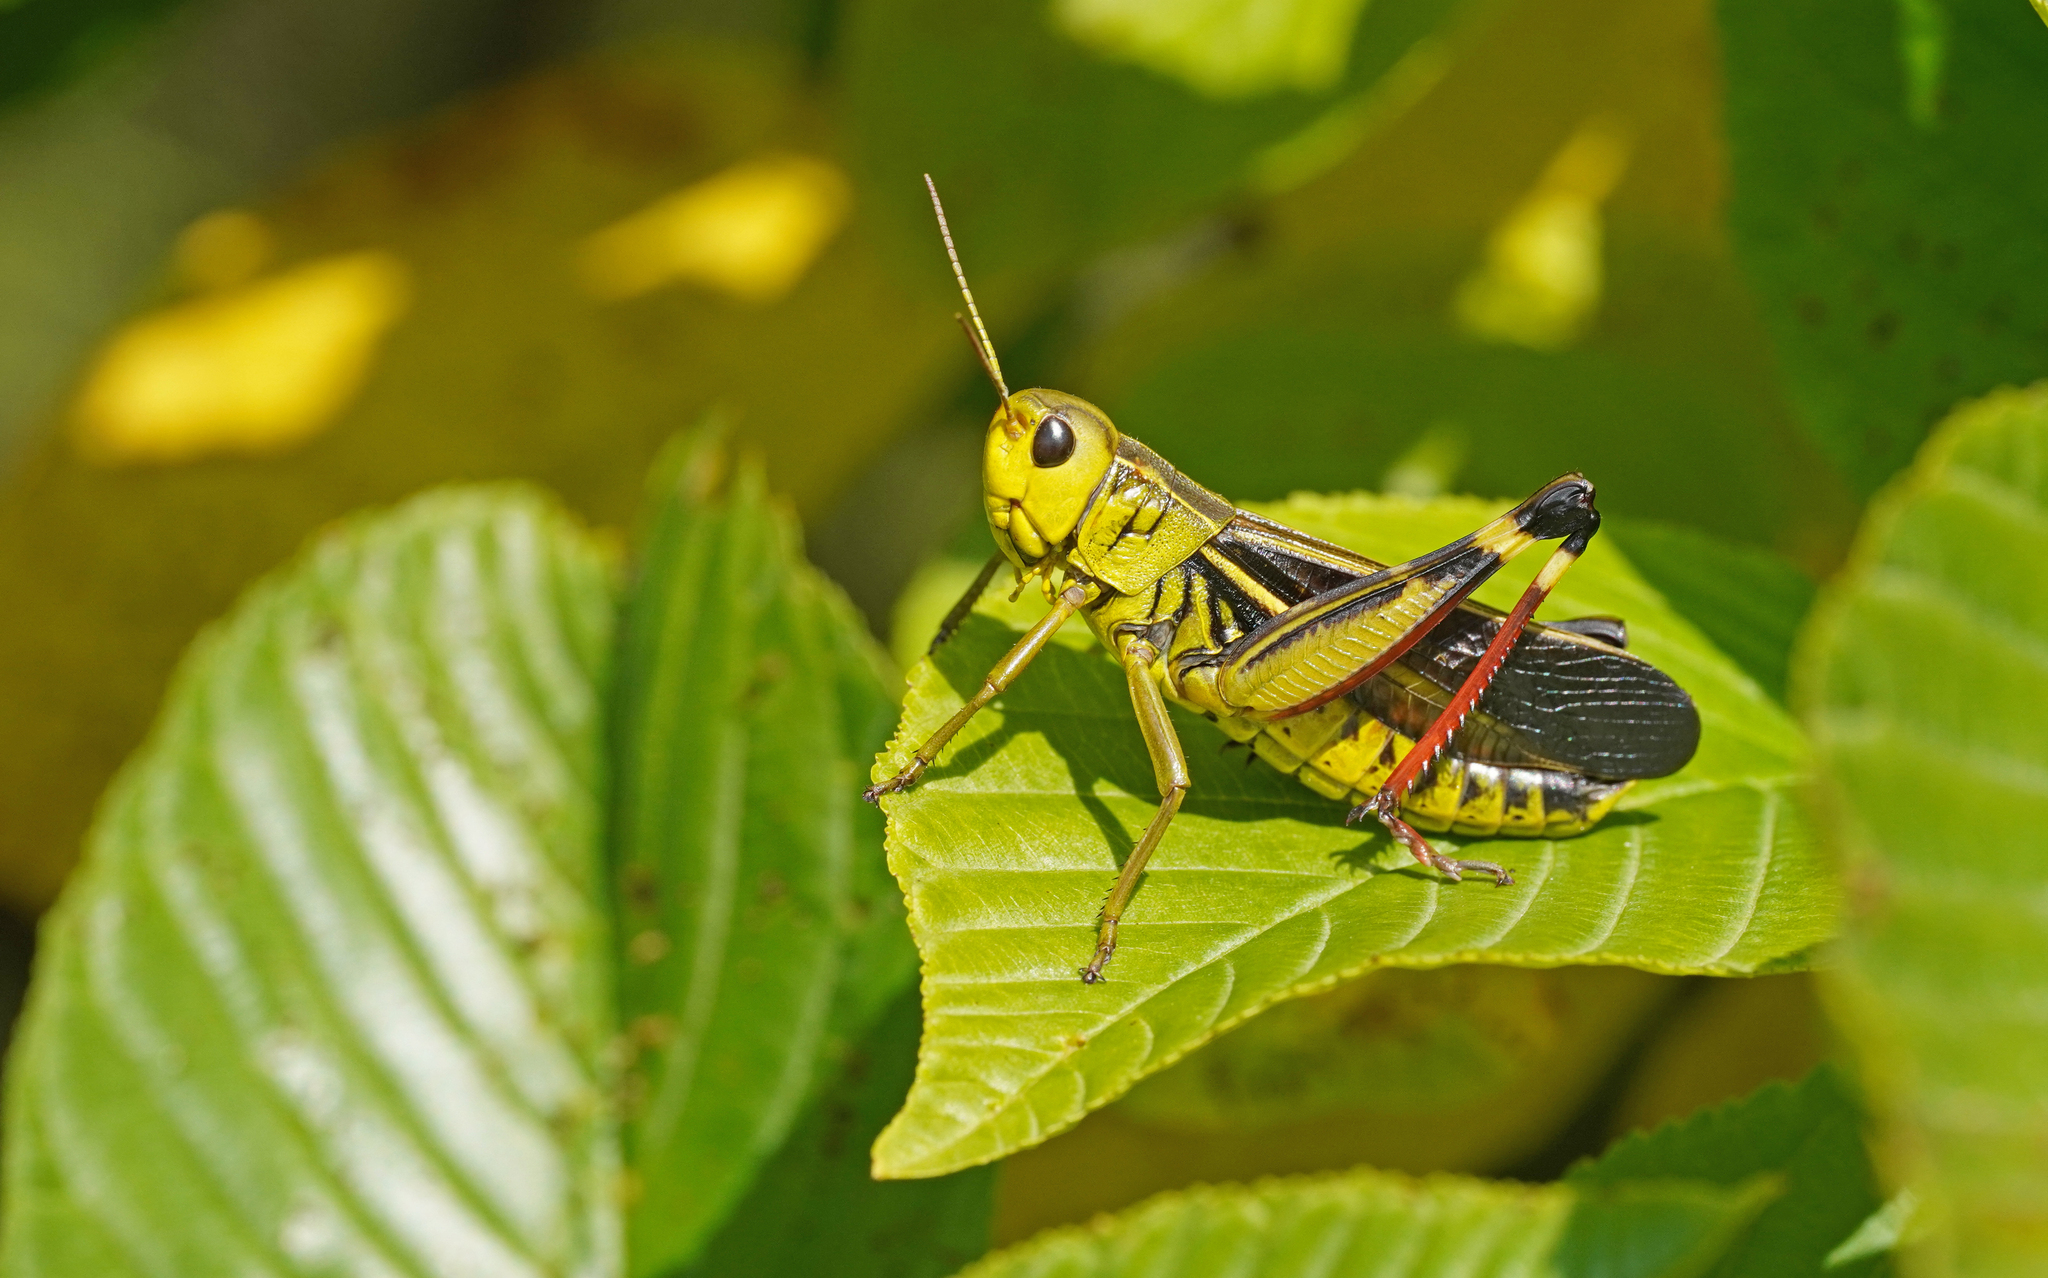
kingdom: Animalia
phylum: Arthropoda
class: Insecta
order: Orthoptera
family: Acrididae
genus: Arcyptera
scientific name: Arcyptera fusca
